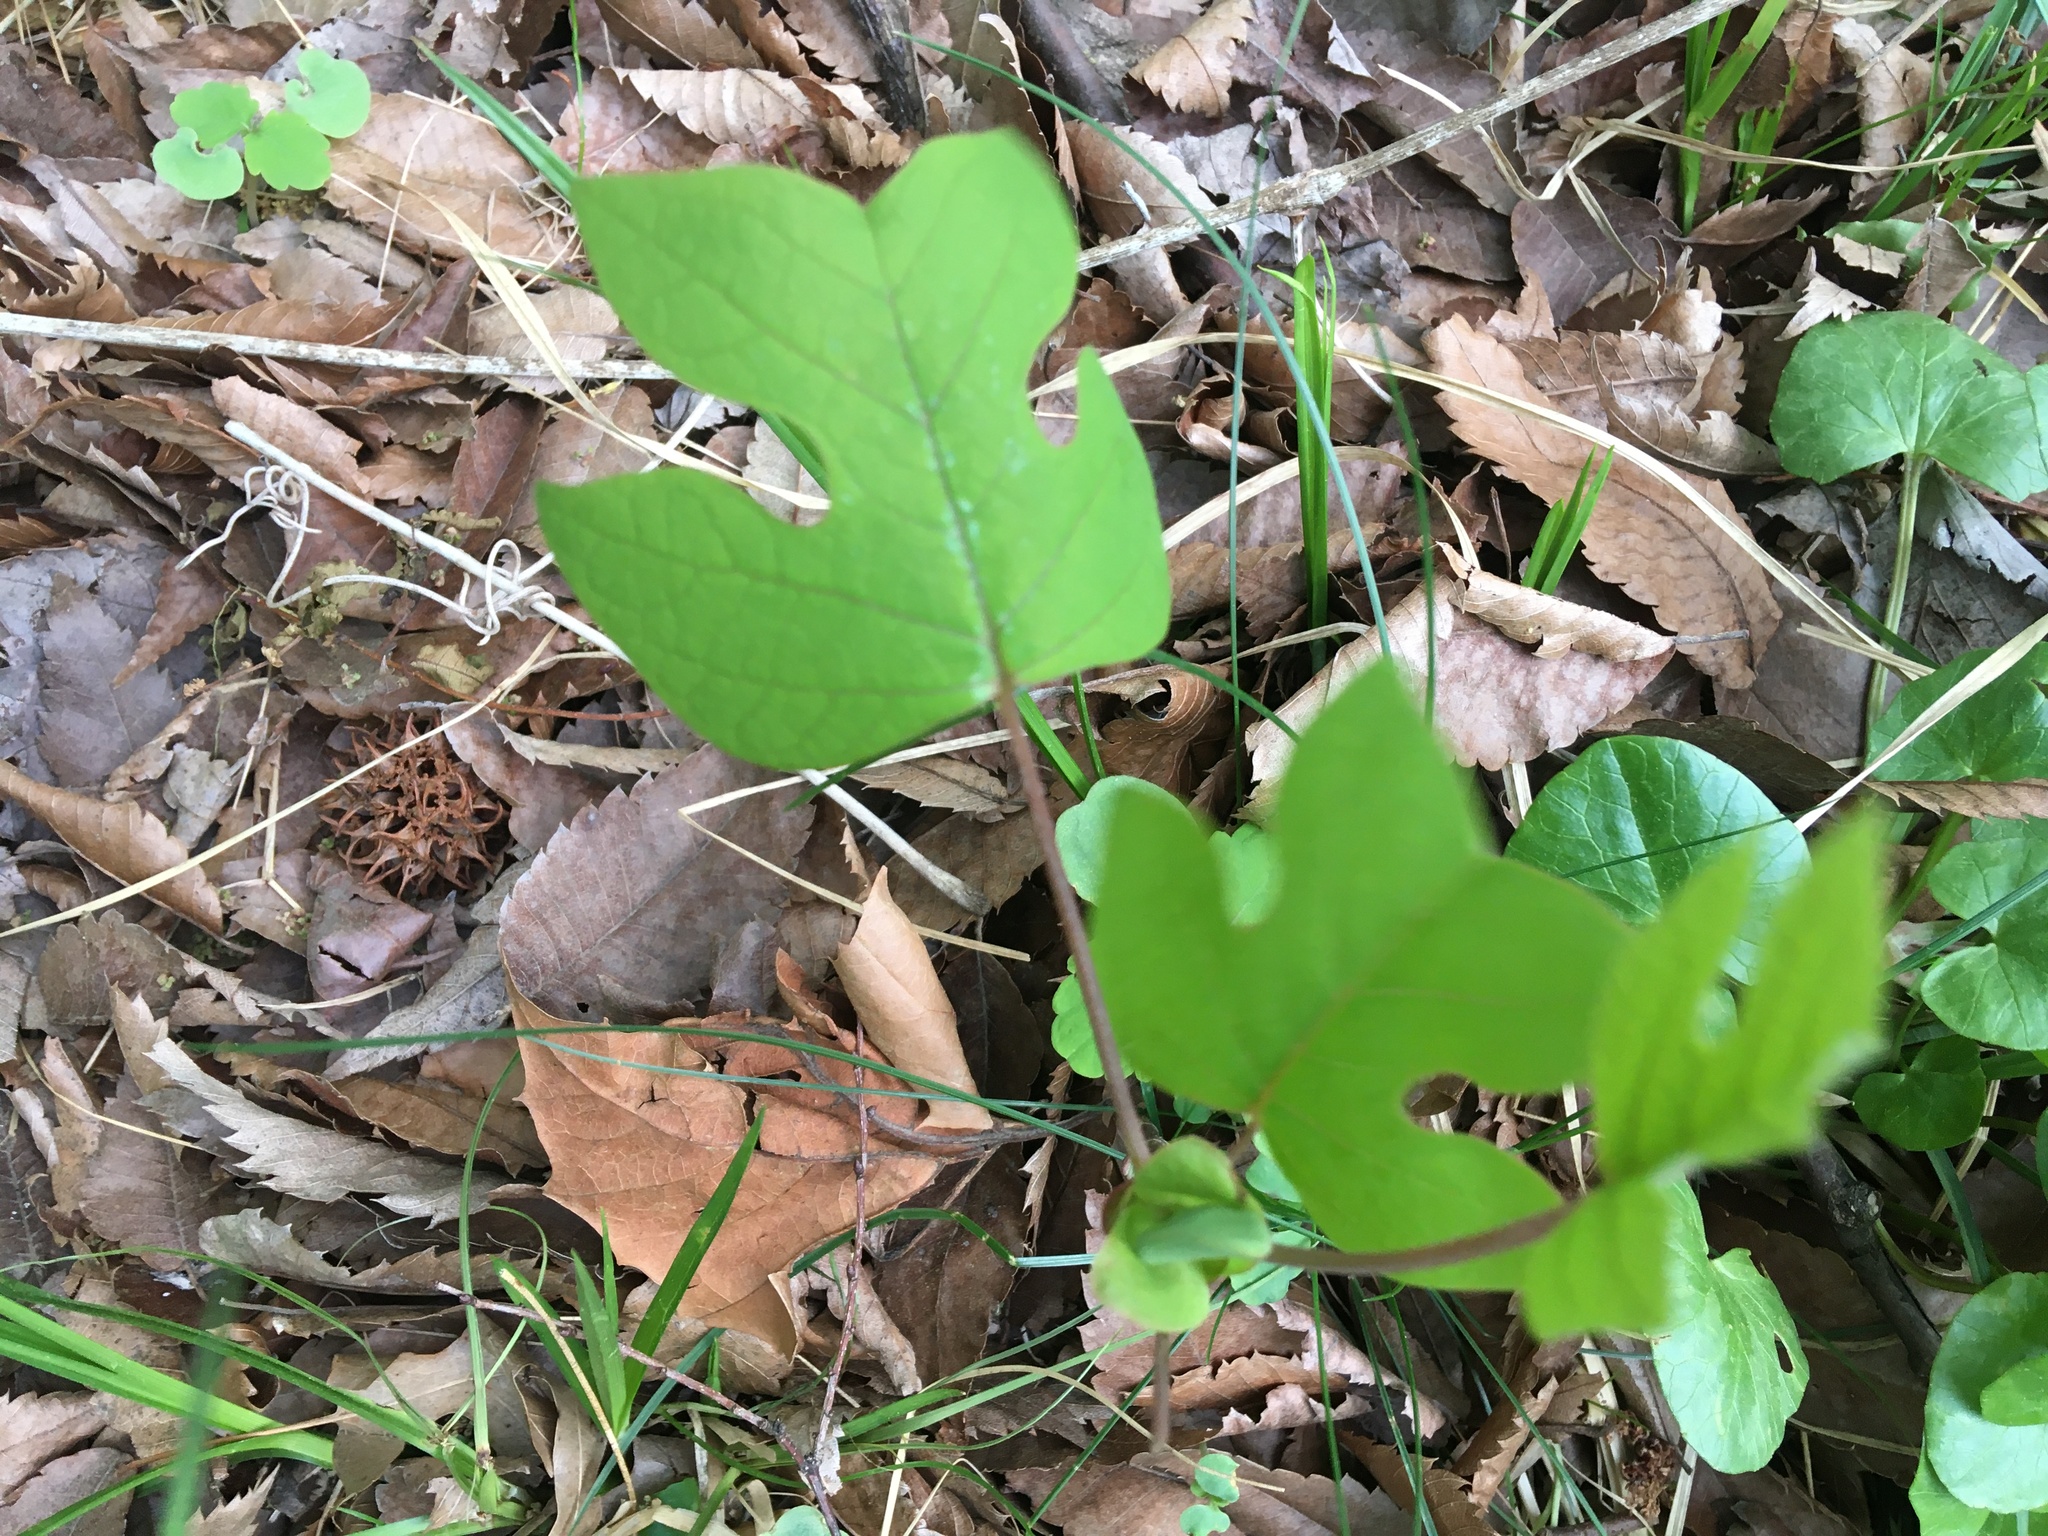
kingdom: Plantae
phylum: Tracheophyta
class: Magnoliopsida
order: Magnoliales
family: Magnoliaceae
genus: Liriodendron
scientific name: Liriodendron tulipifera
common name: Tulip tree
